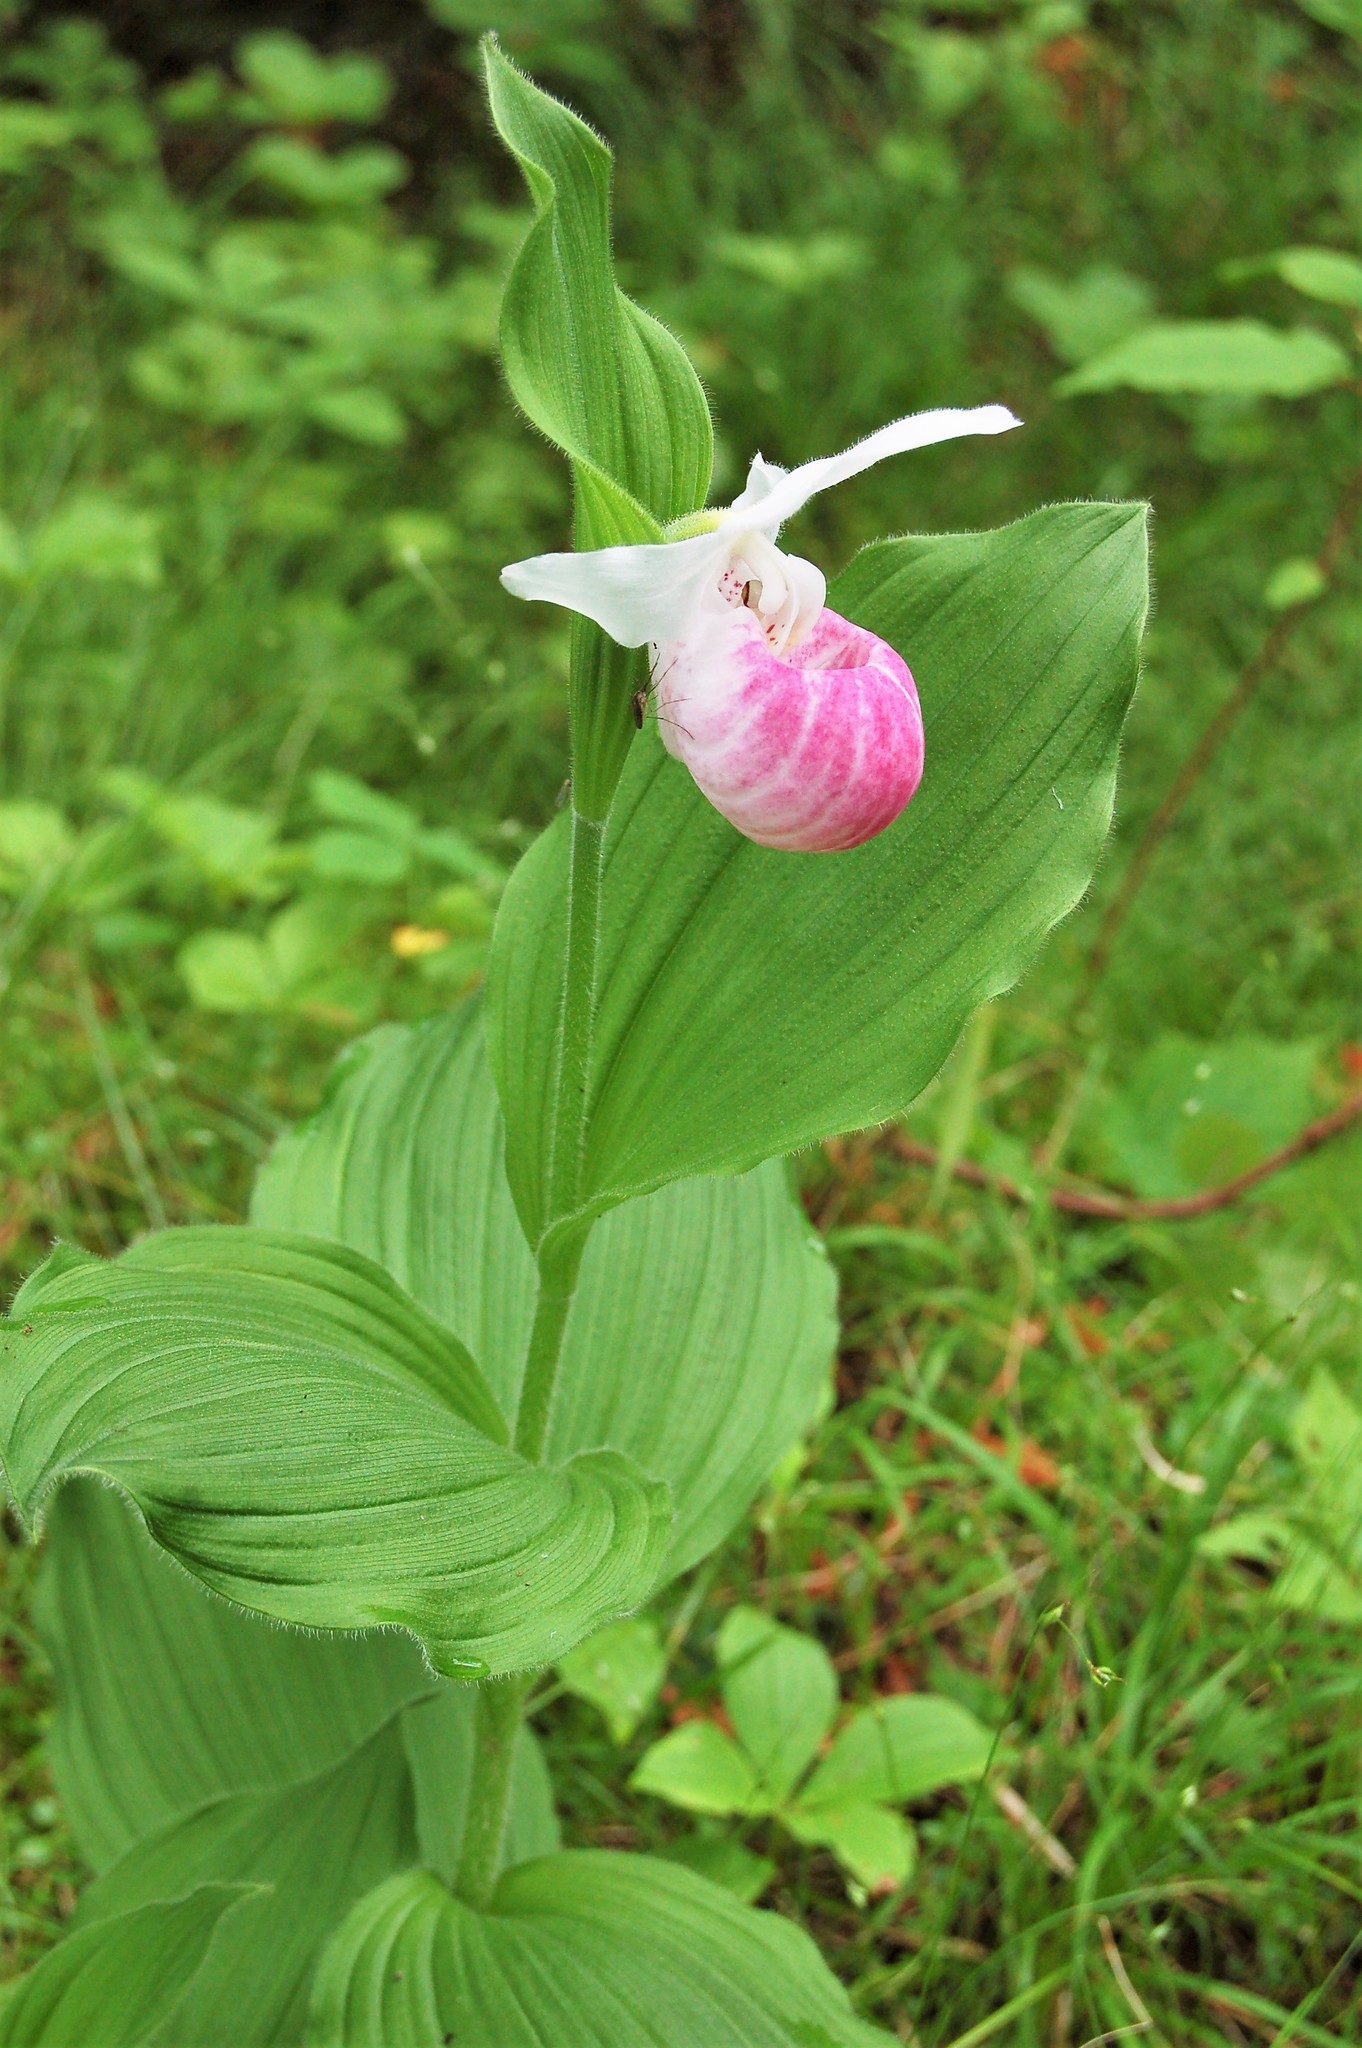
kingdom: Plantae
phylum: Tracheophyta
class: Liliopsida
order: Asparagales
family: Orchidaceae
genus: Cypripedium
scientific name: Cypripedium reginae
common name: Queen lady's-slipper
